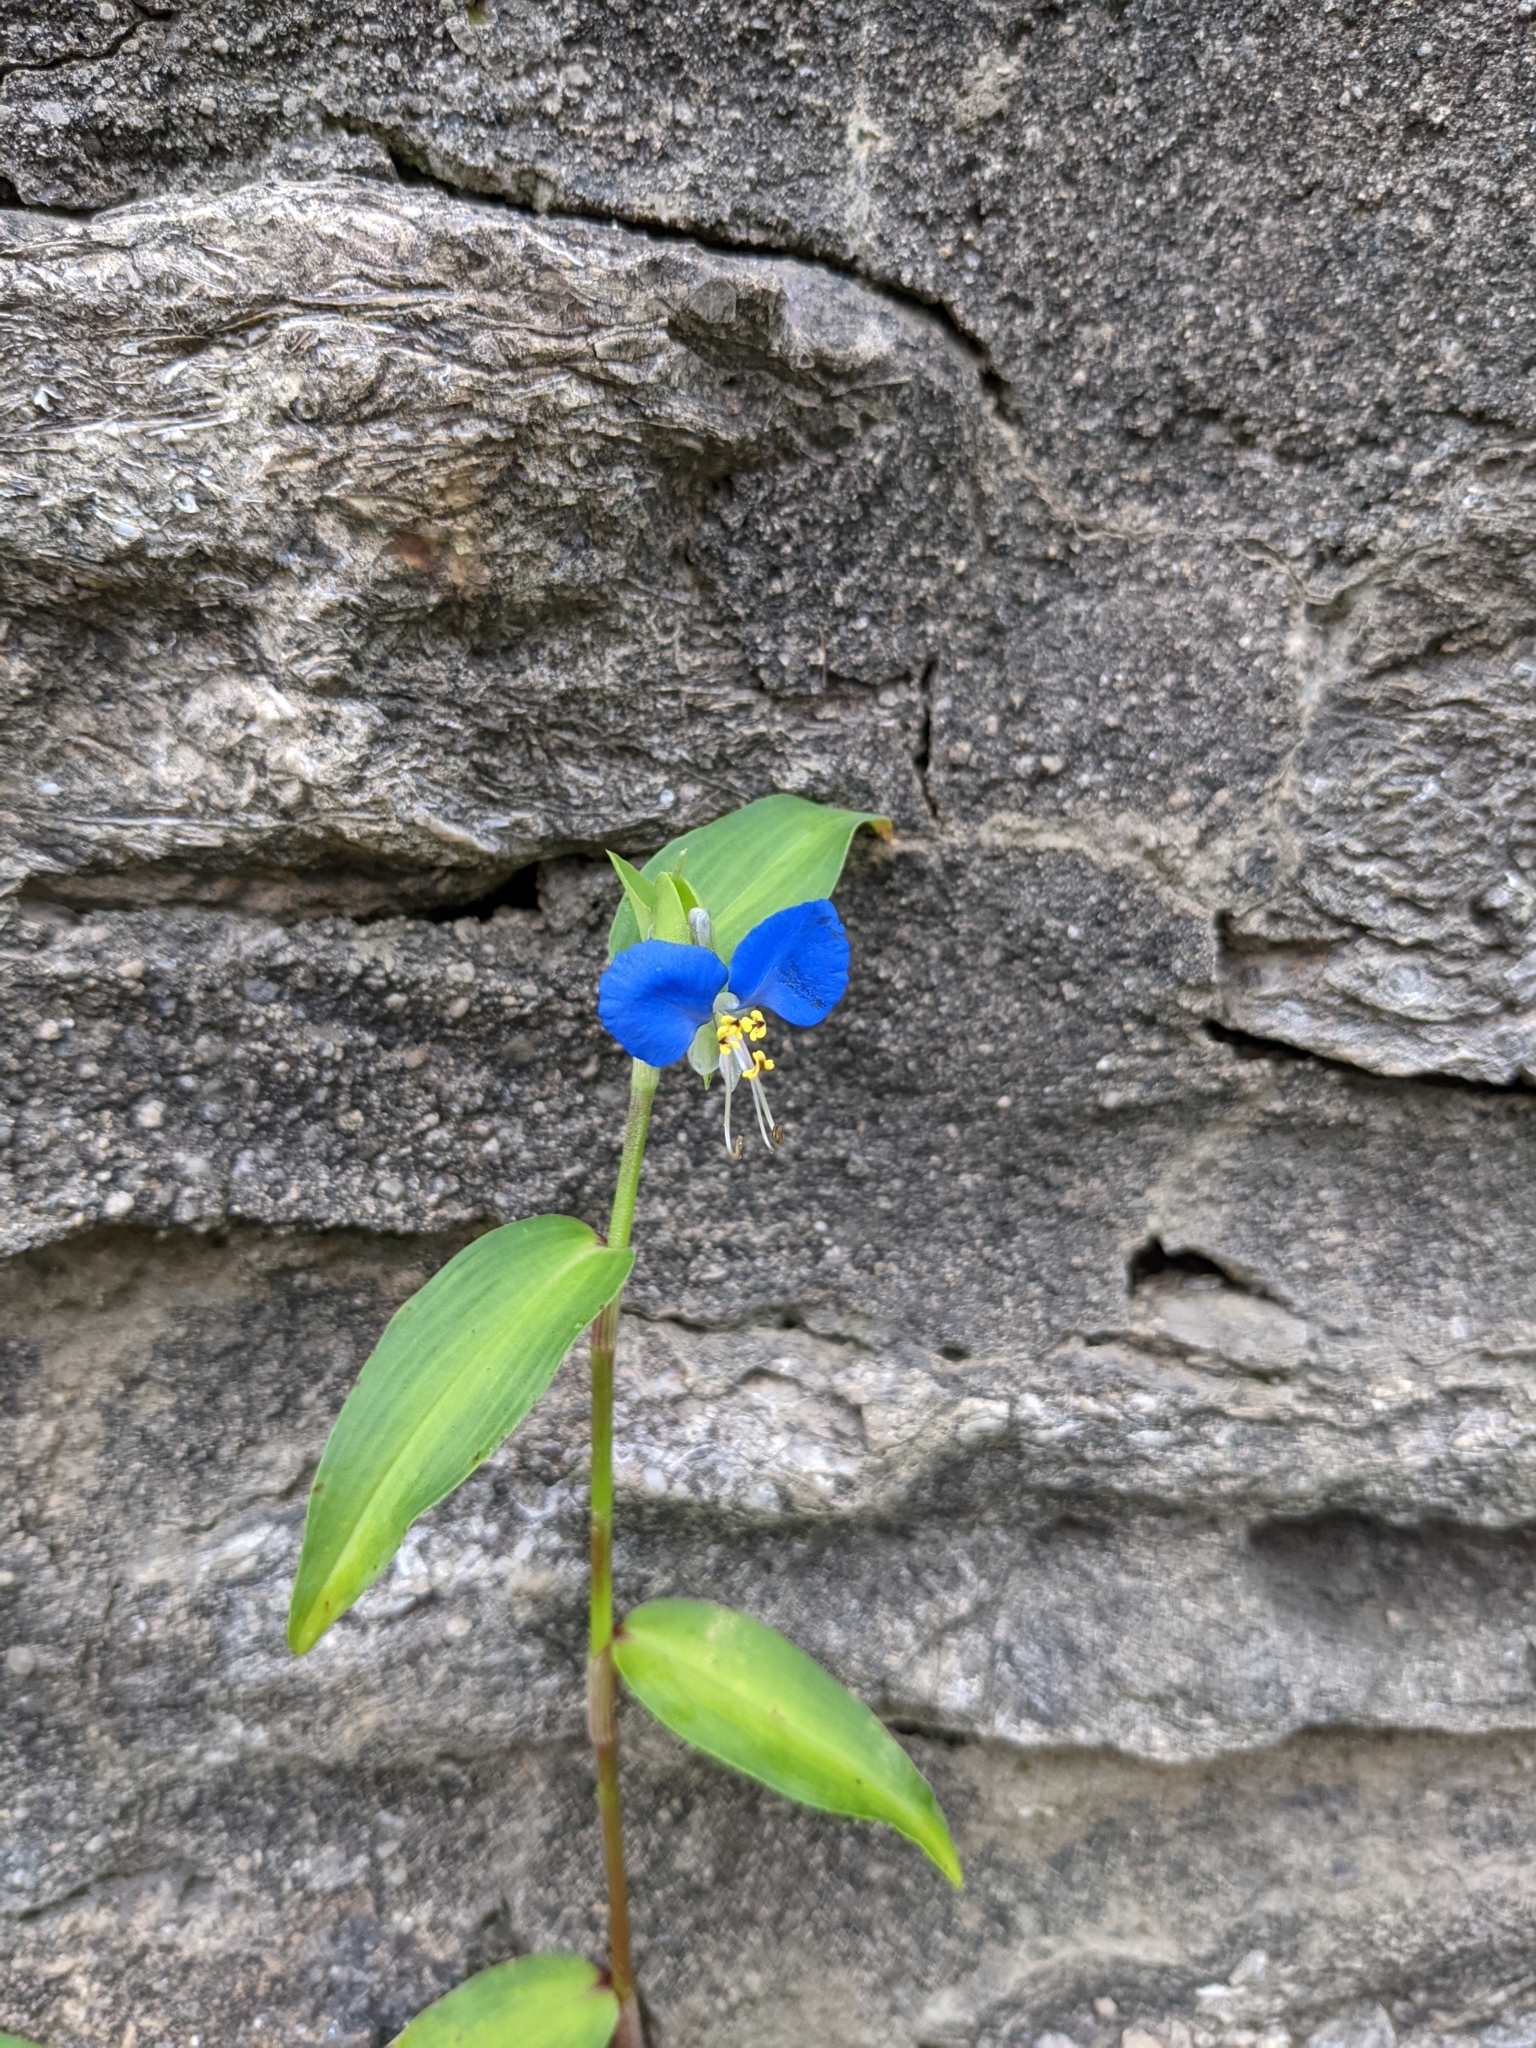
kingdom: Plantae
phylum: Tracheophyta
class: Liliopsida
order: Commelinales
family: Commelinaceae
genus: Commelina
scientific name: Commelina communis
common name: Asiatic dayflower
